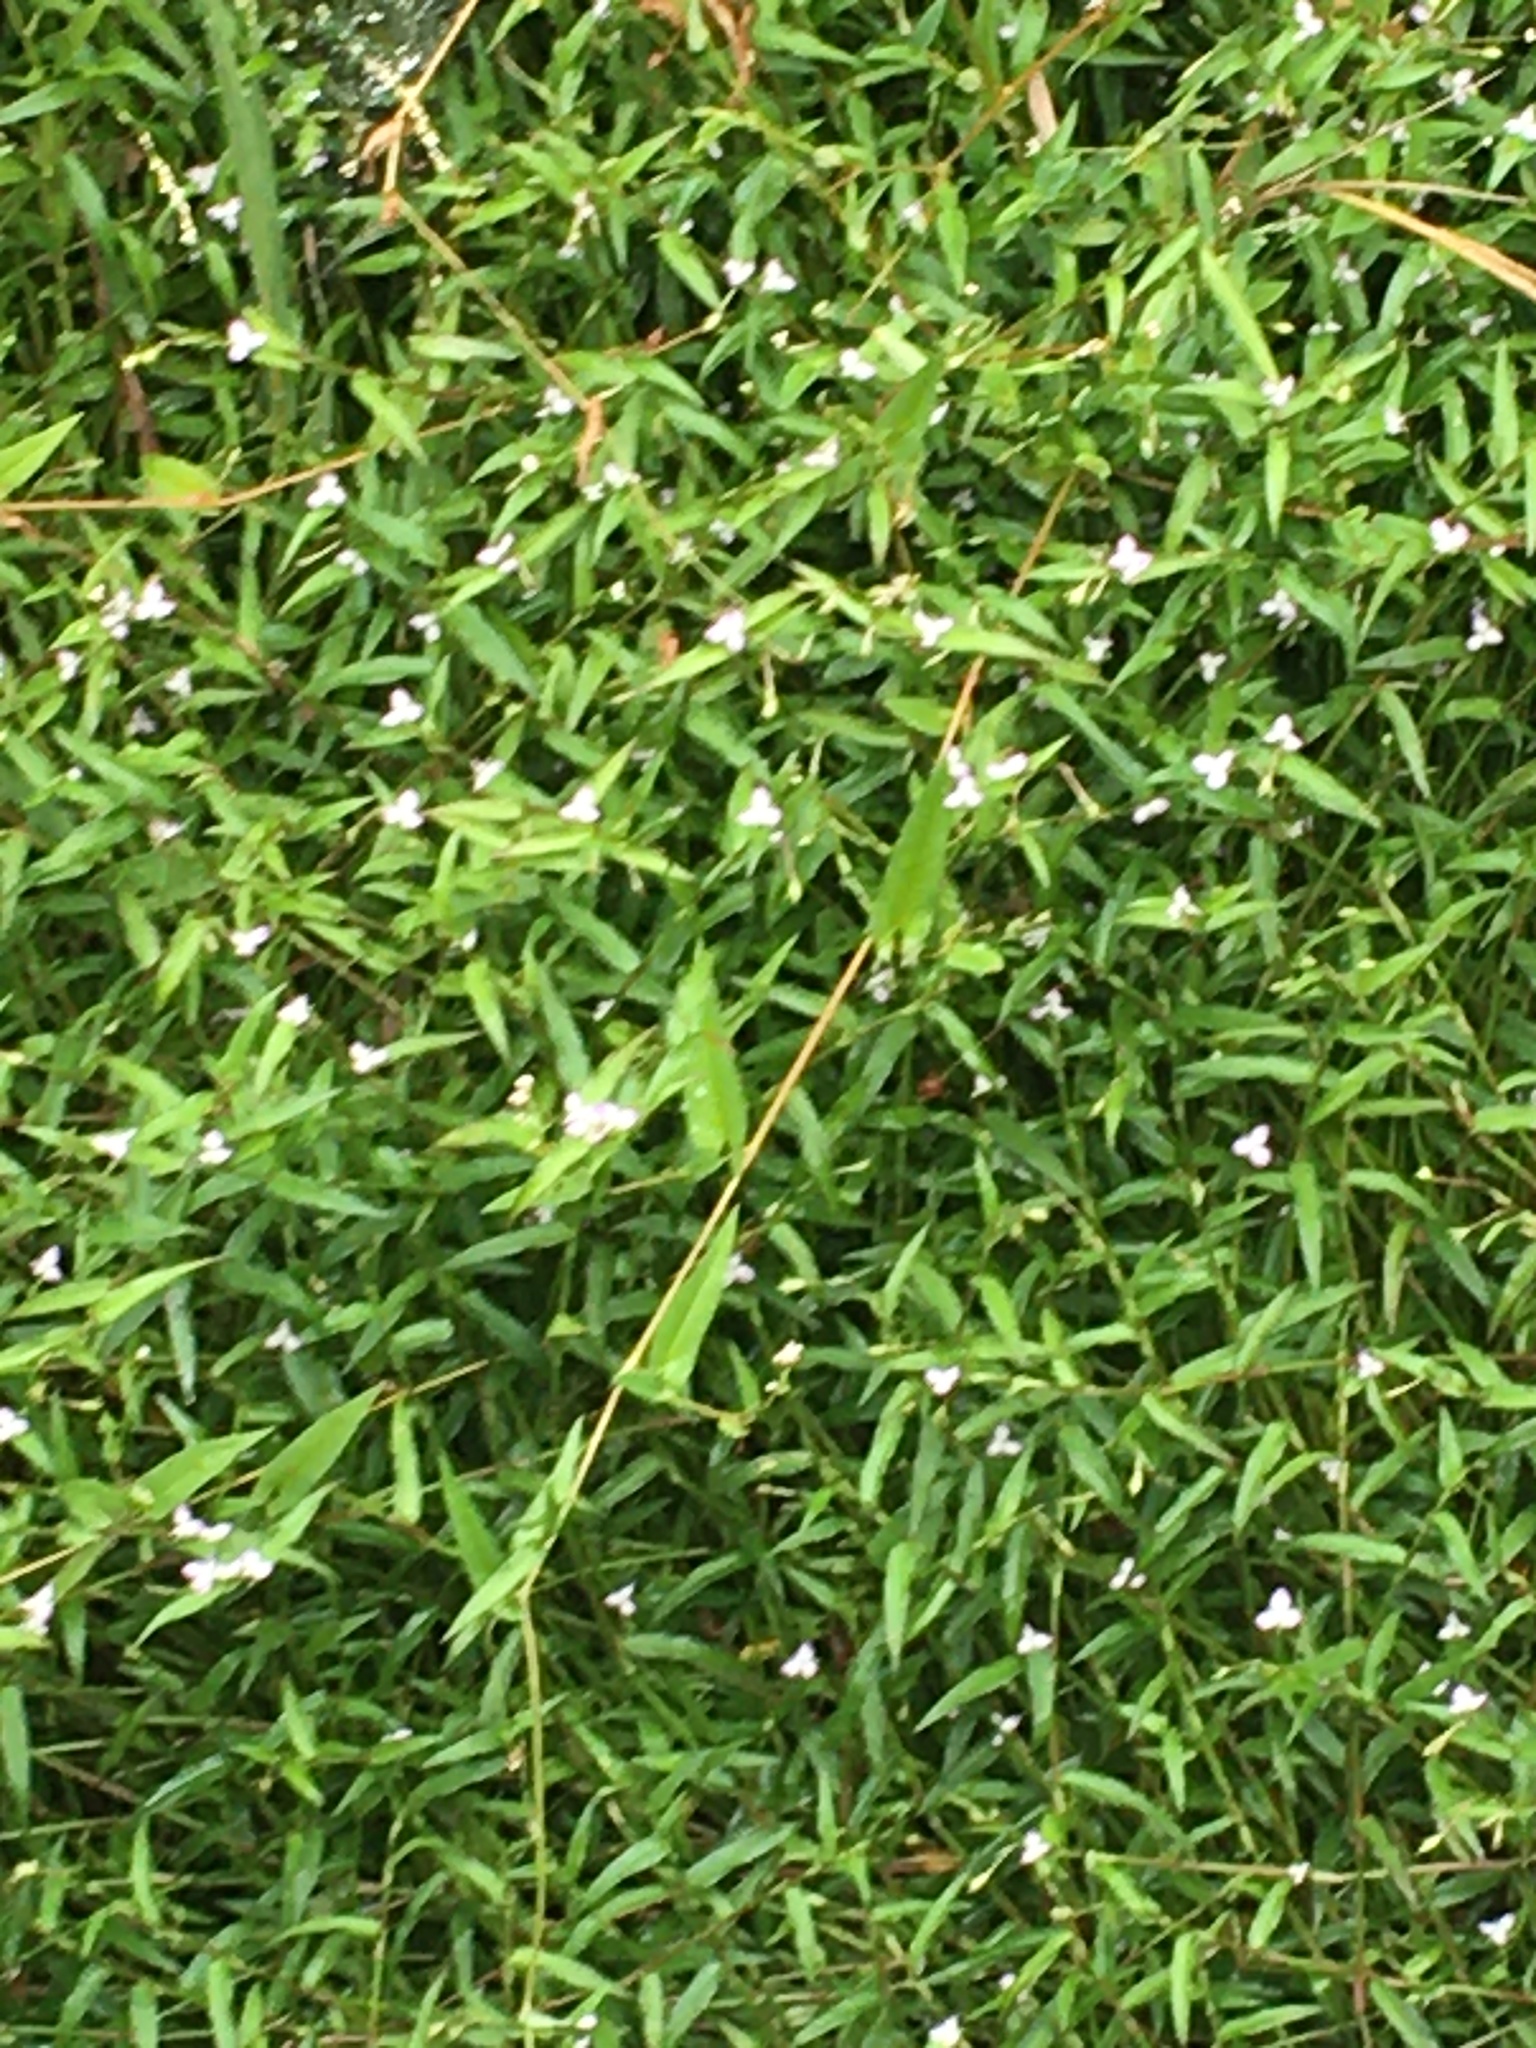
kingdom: Plantae
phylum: Tracheophyta
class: Liliopsida
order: Commelinales
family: Commelinaceae
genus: Murdannia
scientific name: Murdannia keisak
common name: Wartremoving herb
